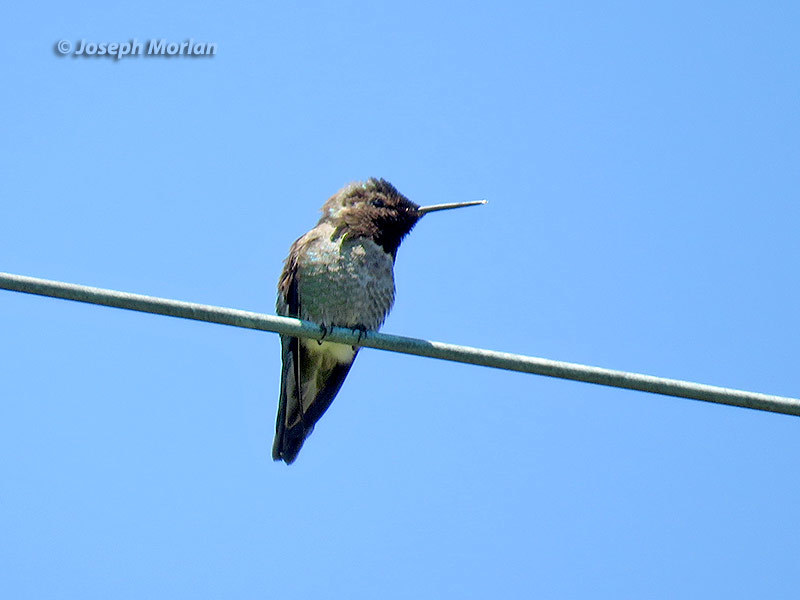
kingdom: Animalia
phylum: Chordata
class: Aves
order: Apodiformes
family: Trochilidae
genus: Calypte
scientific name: Calypte anna
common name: Anna's hummingbird
